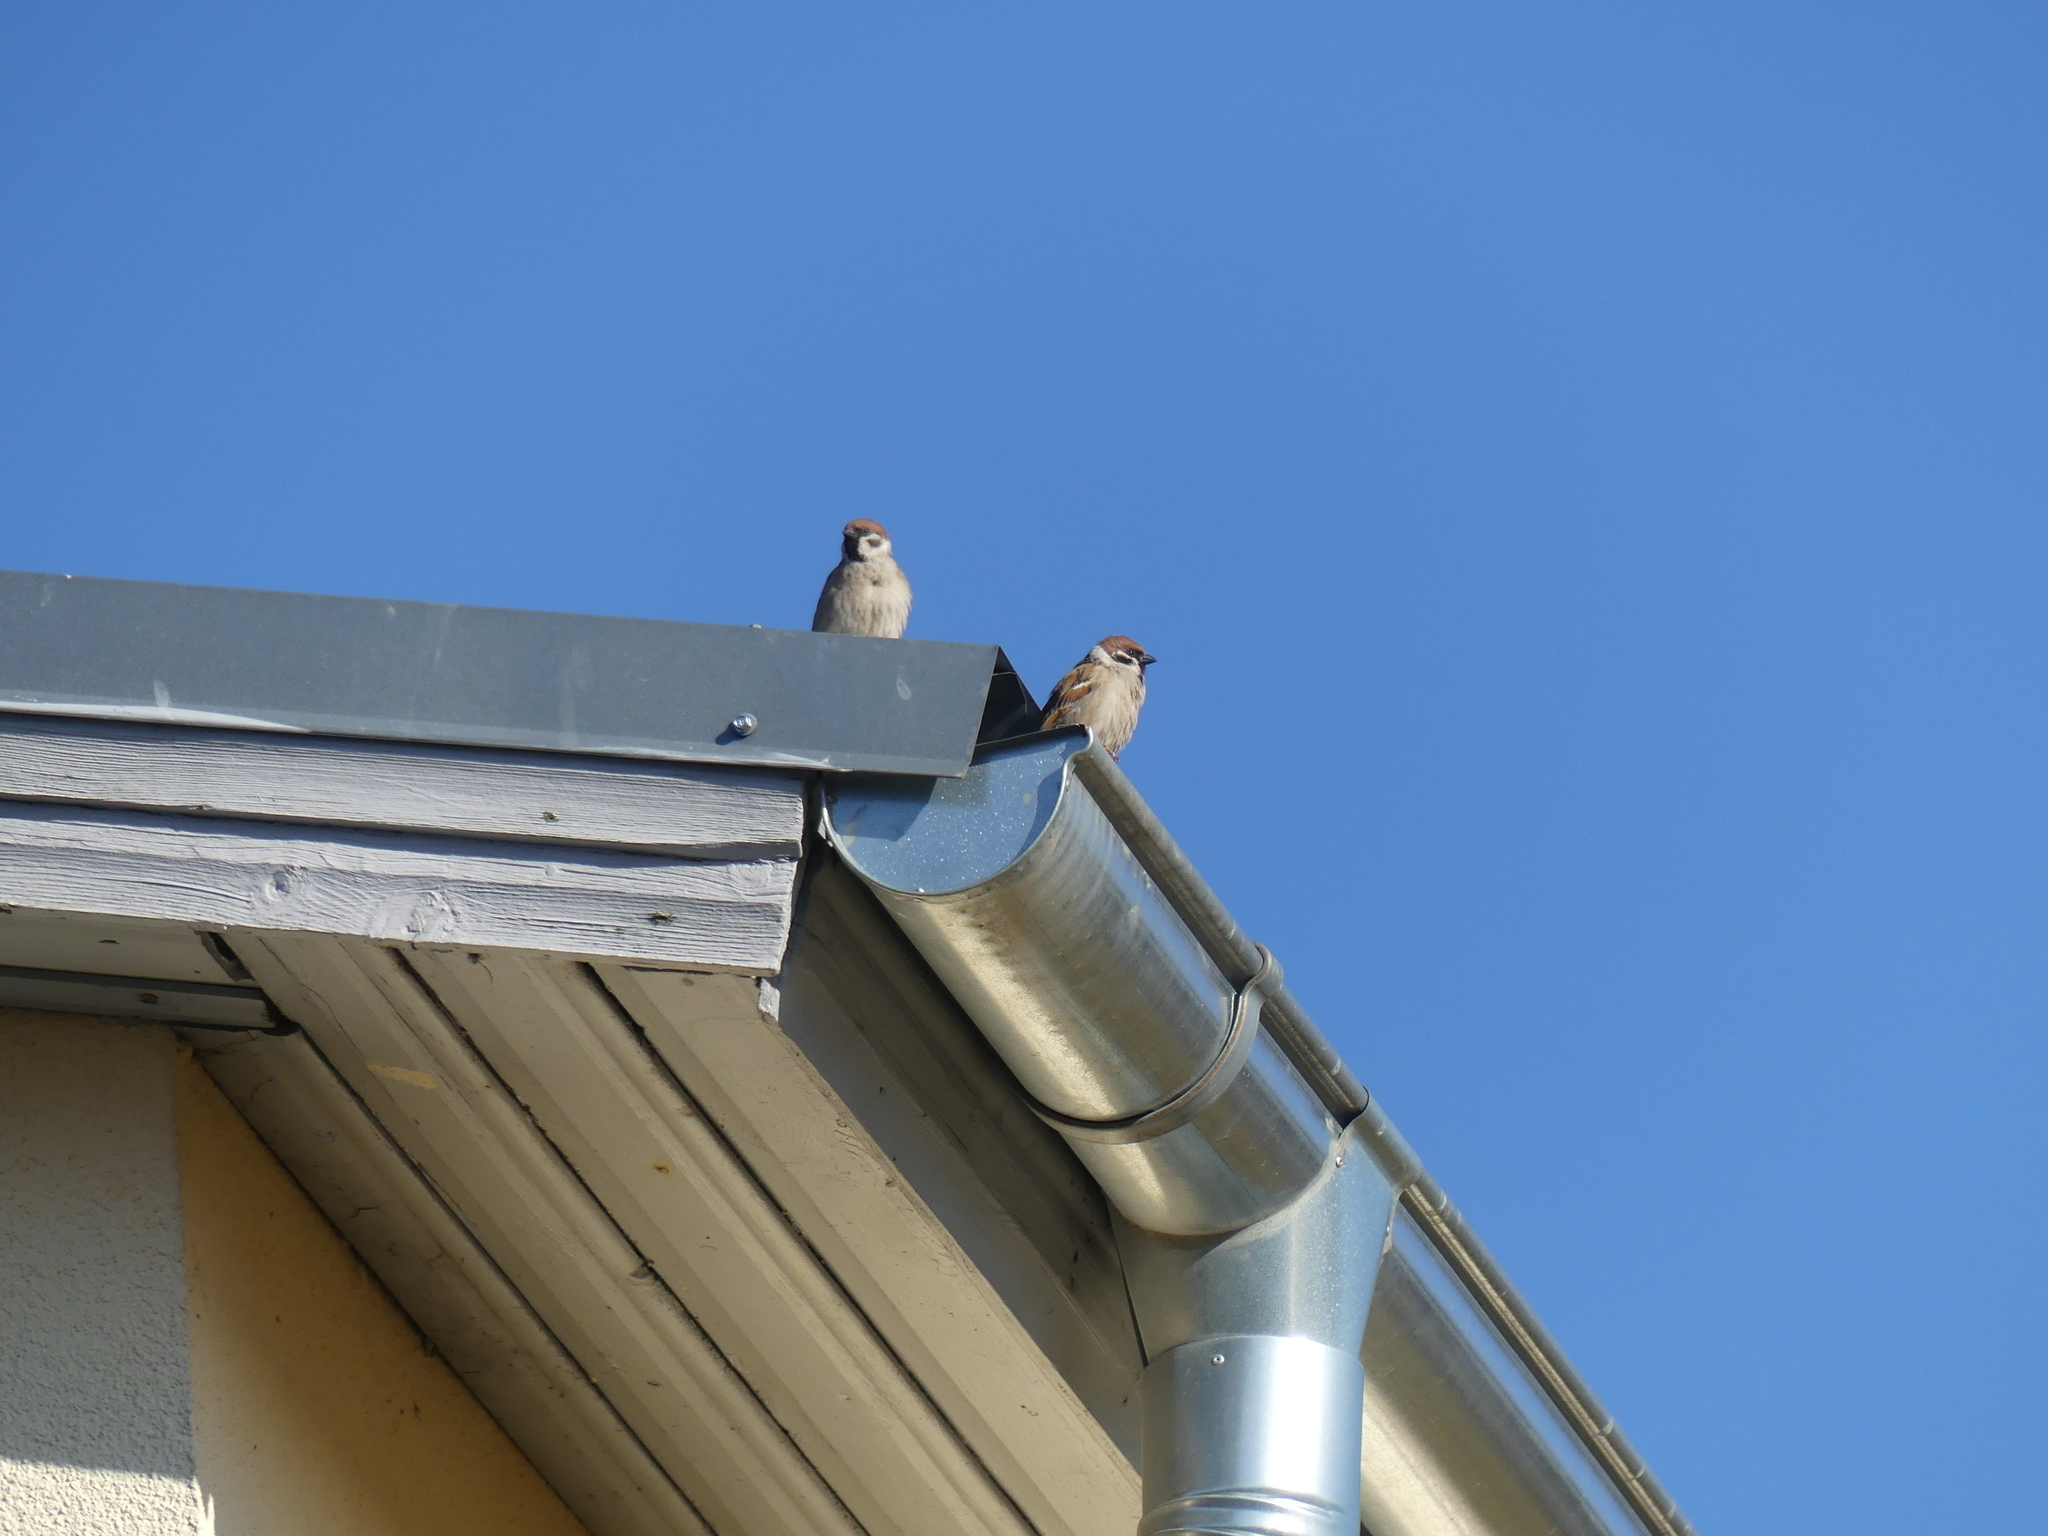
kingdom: Animalia
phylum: Chordata
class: Aves
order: Passeriformes
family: Passeridae
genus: Passer
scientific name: Passer montanus
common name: Eurasian tree sparrow
